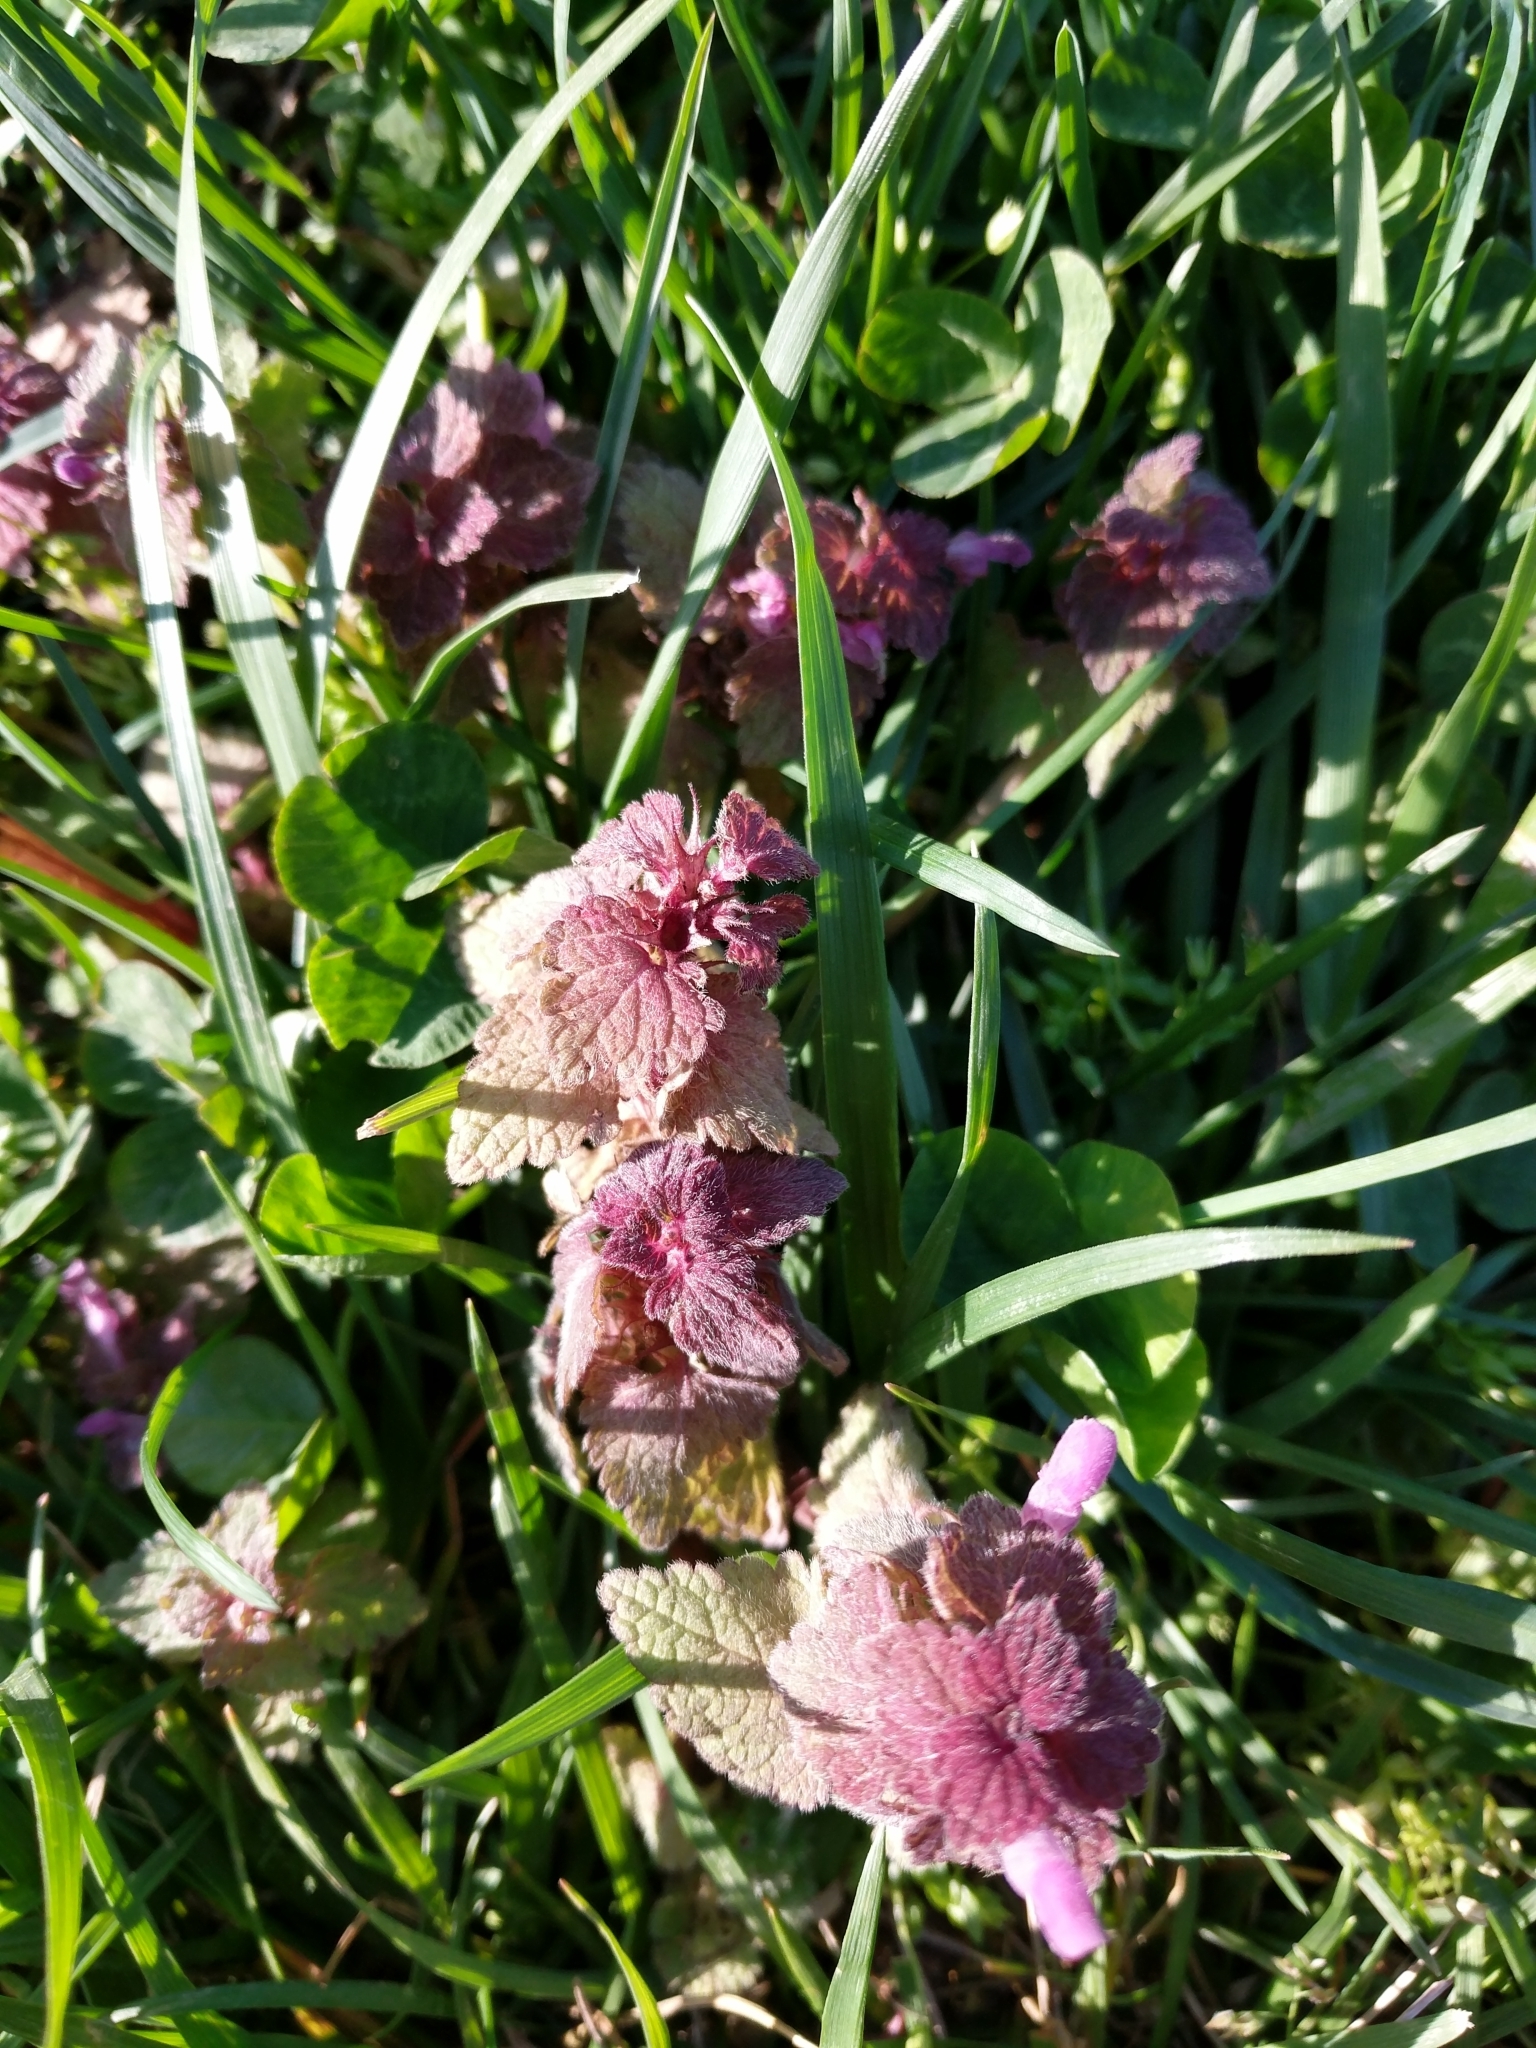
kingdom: Plantae
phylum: Tracheophyta
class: Magnoliopsida
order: Lamiales
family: Lamiaceae
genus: Lamium
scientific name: Lamium purpureum
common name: Red dead-nettle
